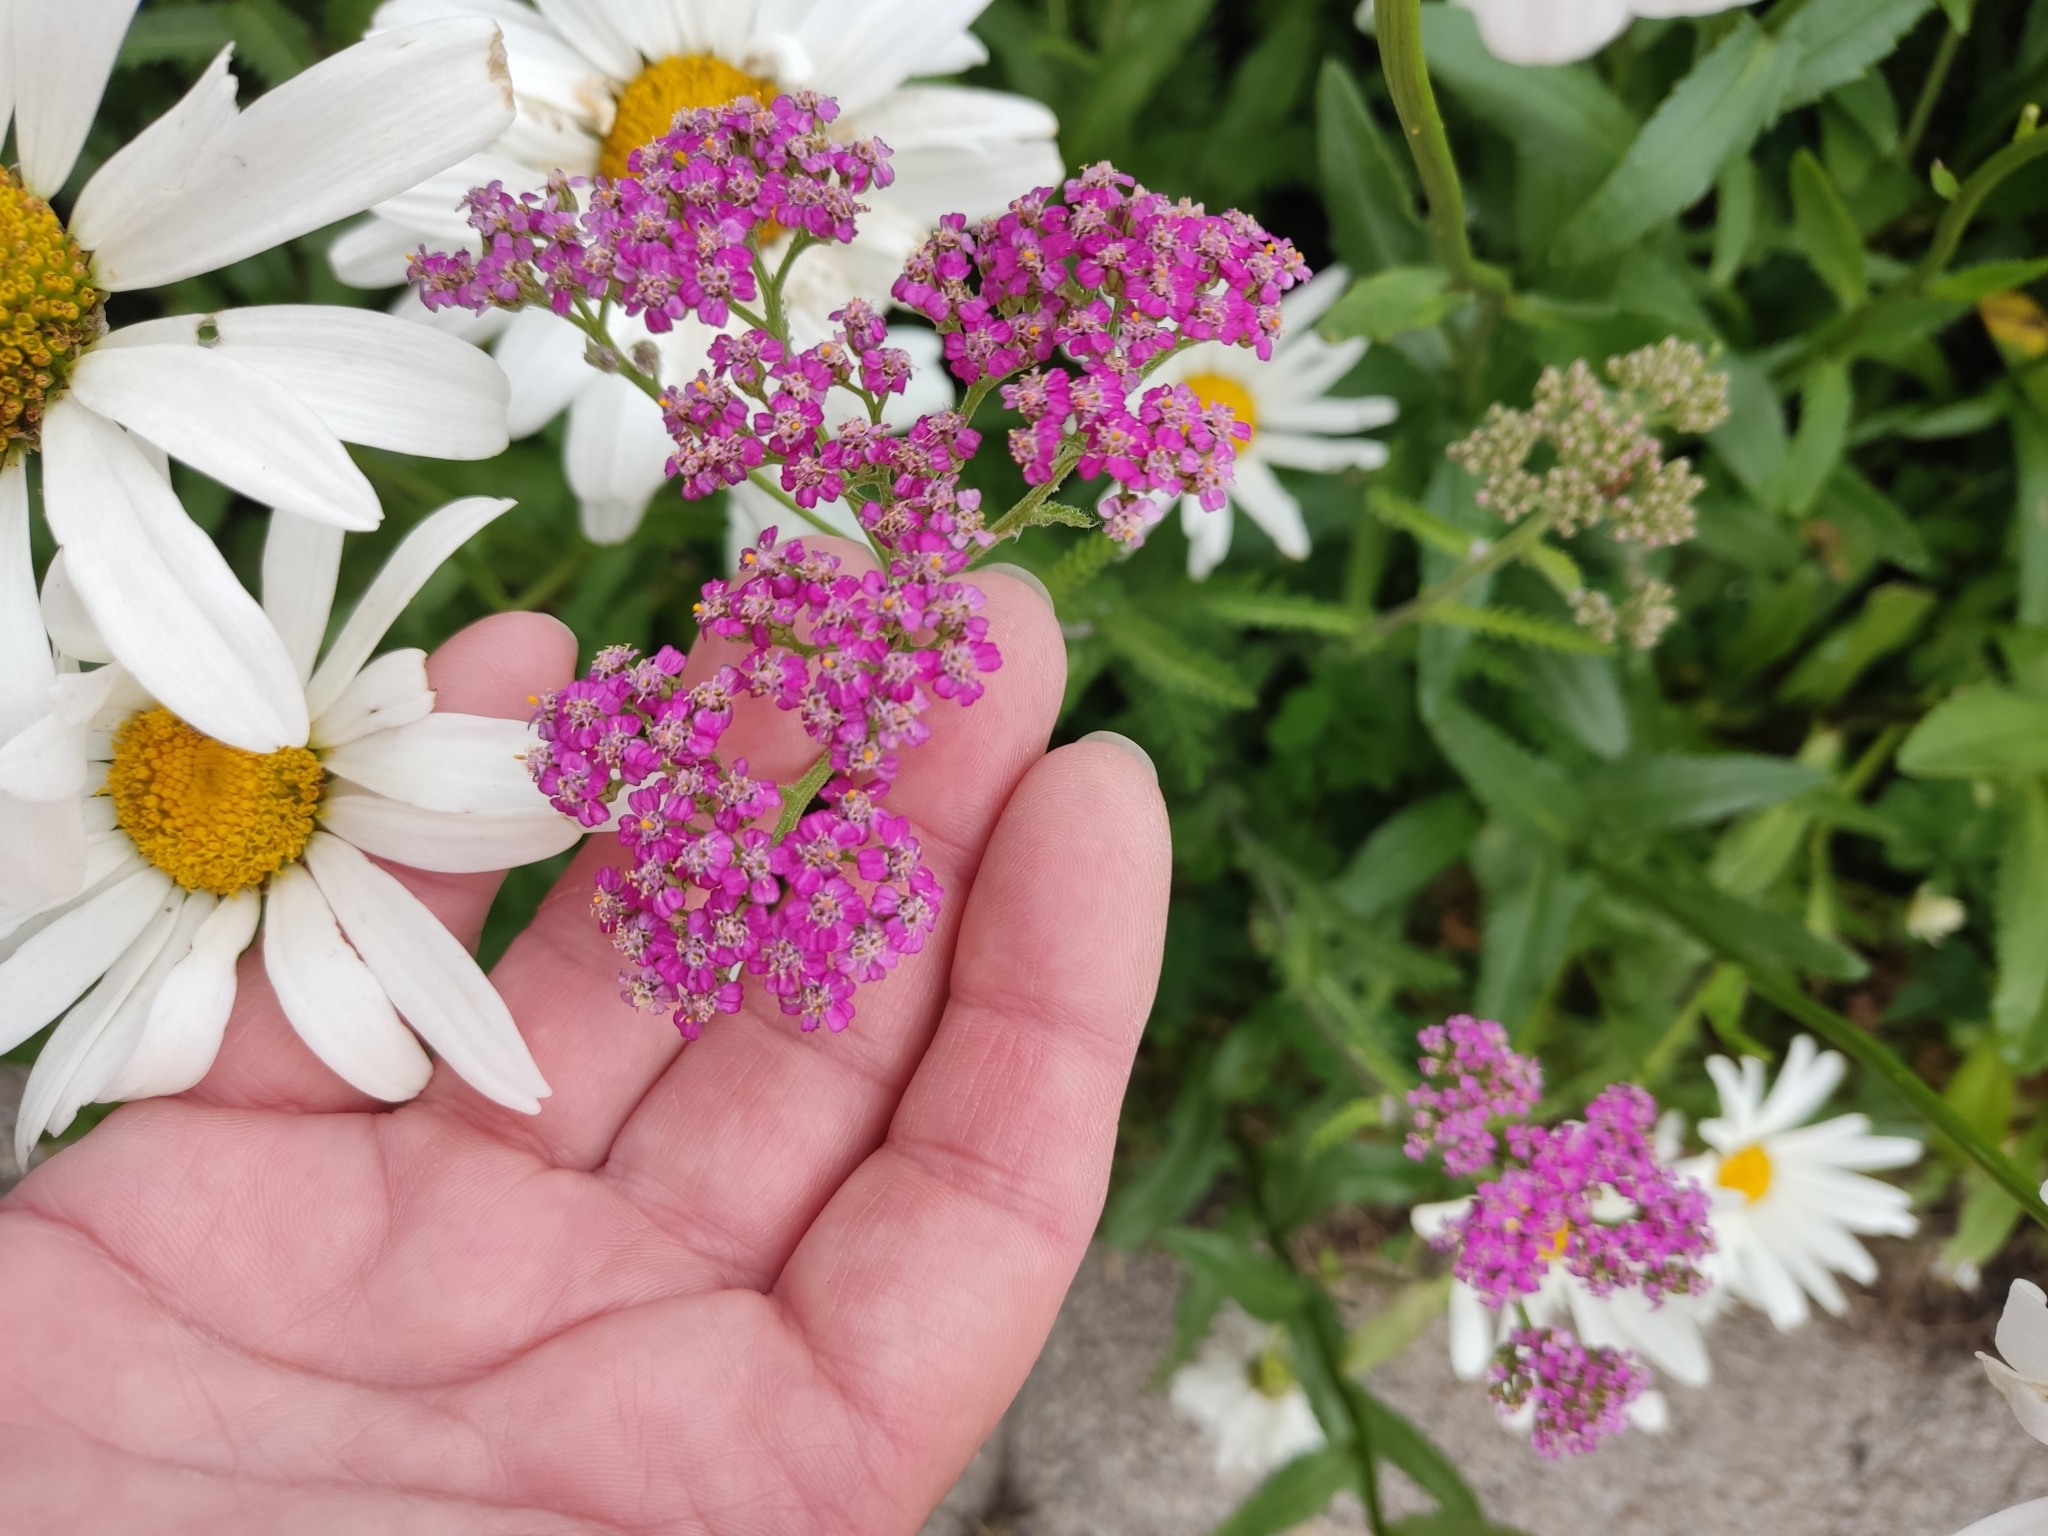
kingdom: Plantae
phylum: Tracheophyta
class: Magnoliopsida
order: Asterales
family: Asteraceae
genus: Achillea
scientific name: Achillea millefolium
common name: Yarrow
